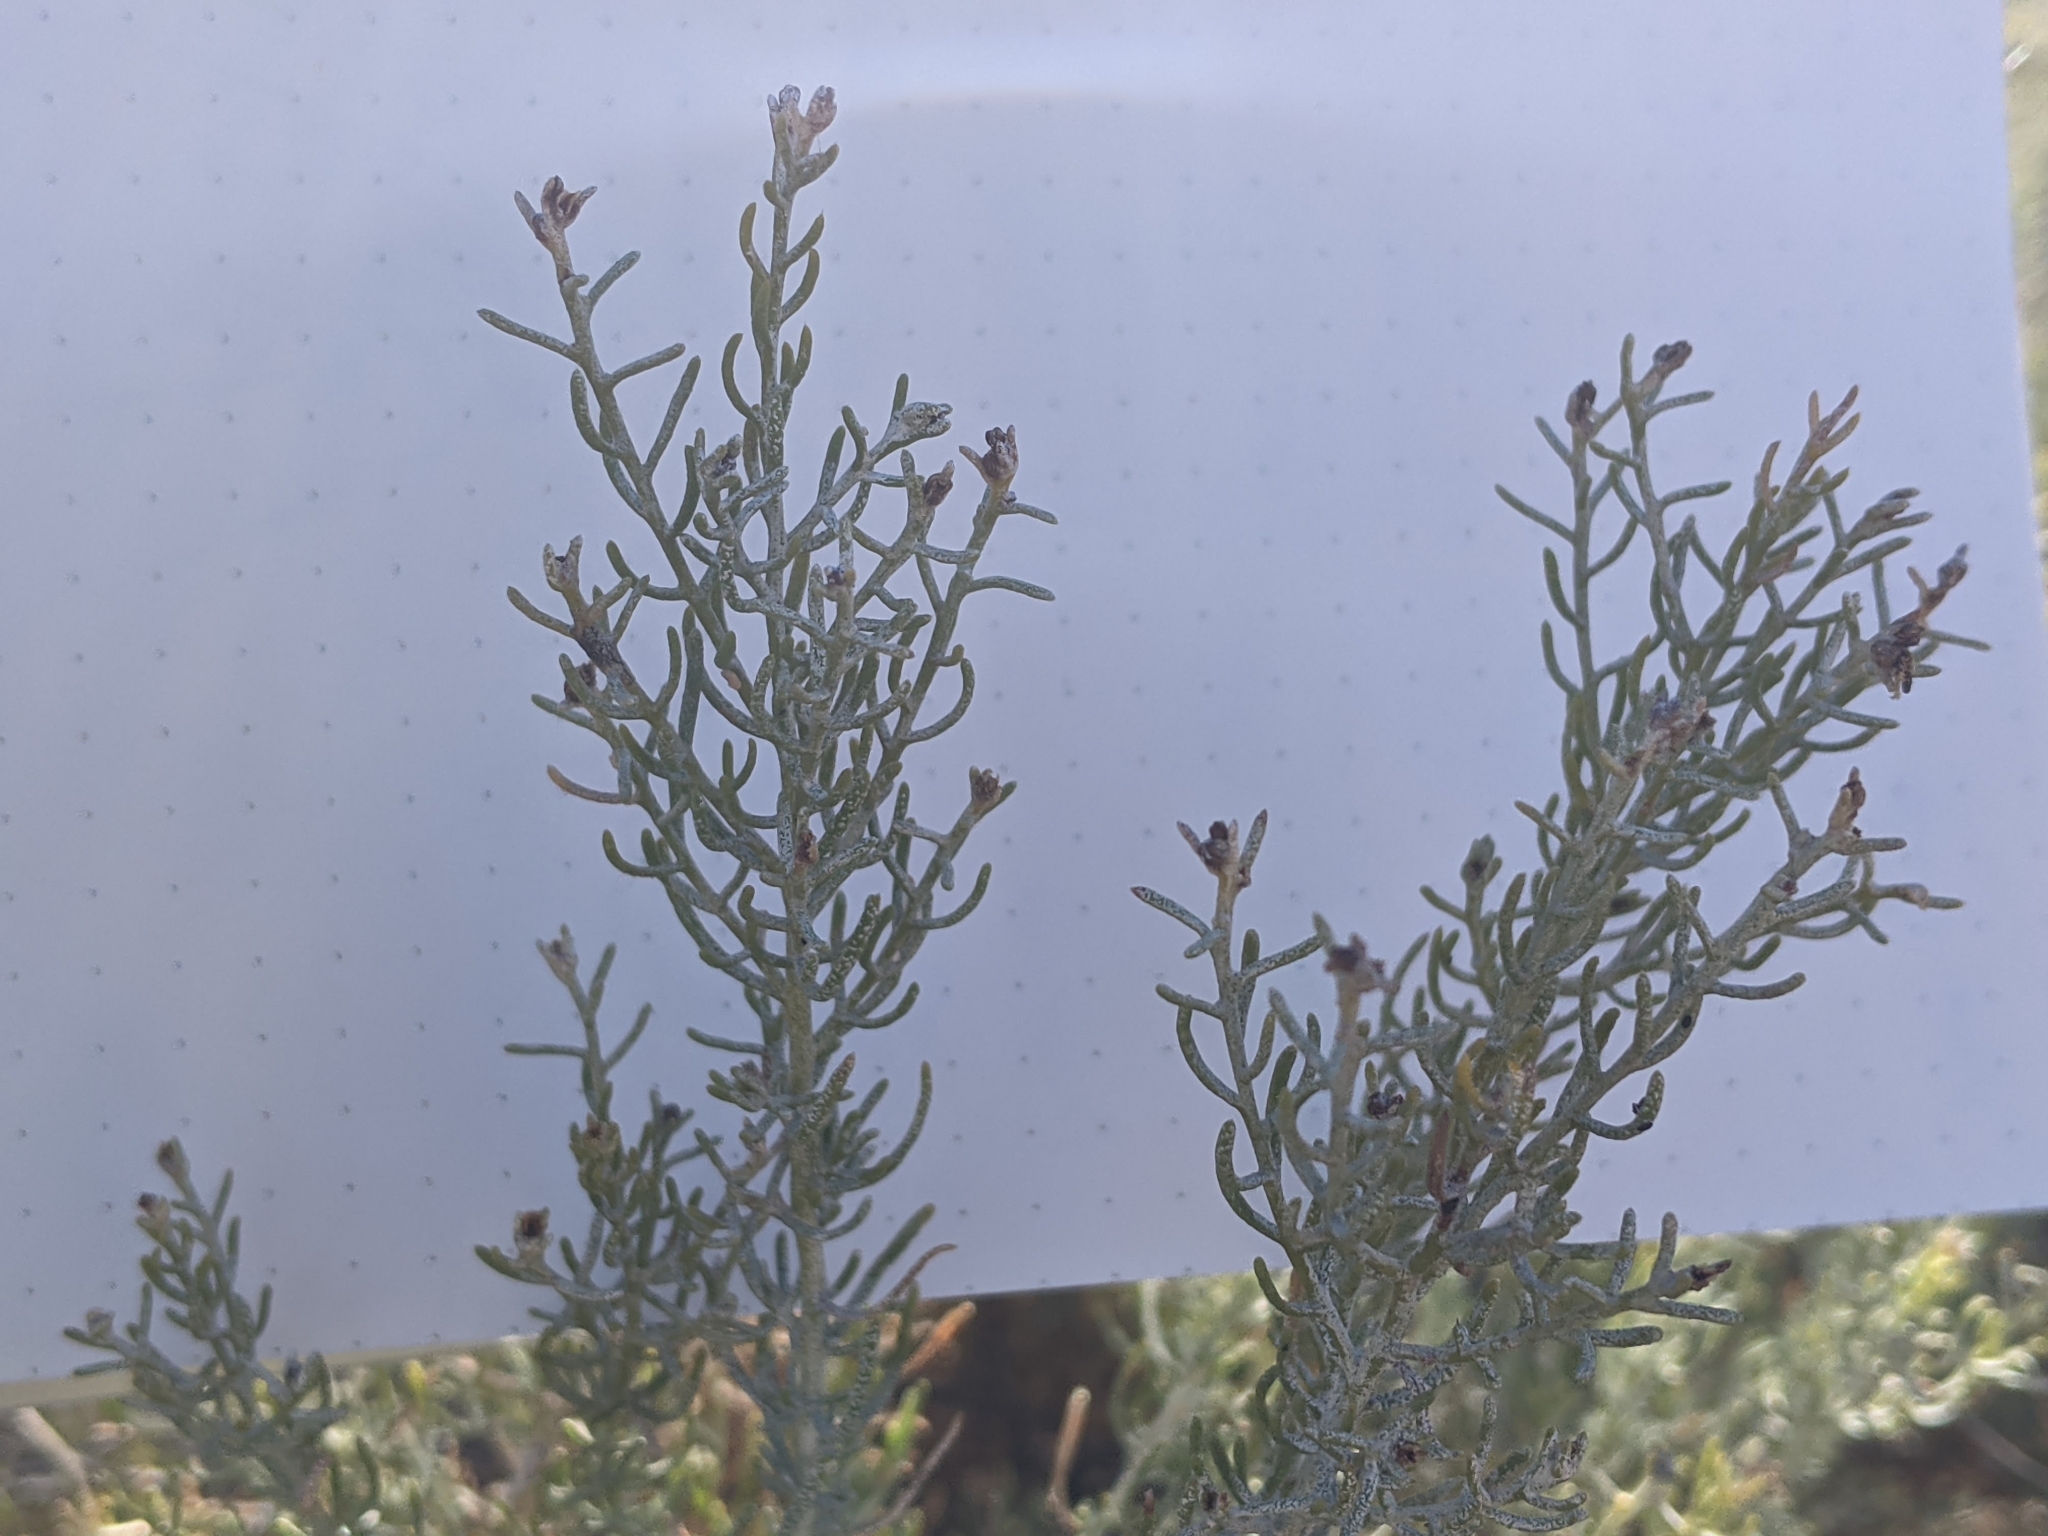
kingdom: Plantae
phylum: Tracheophyta
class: Magnoliopsida
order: Asterales
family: Asteraceae
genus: Ericameria
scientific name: Ericameria laricifolia
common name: Turpentine-bush
